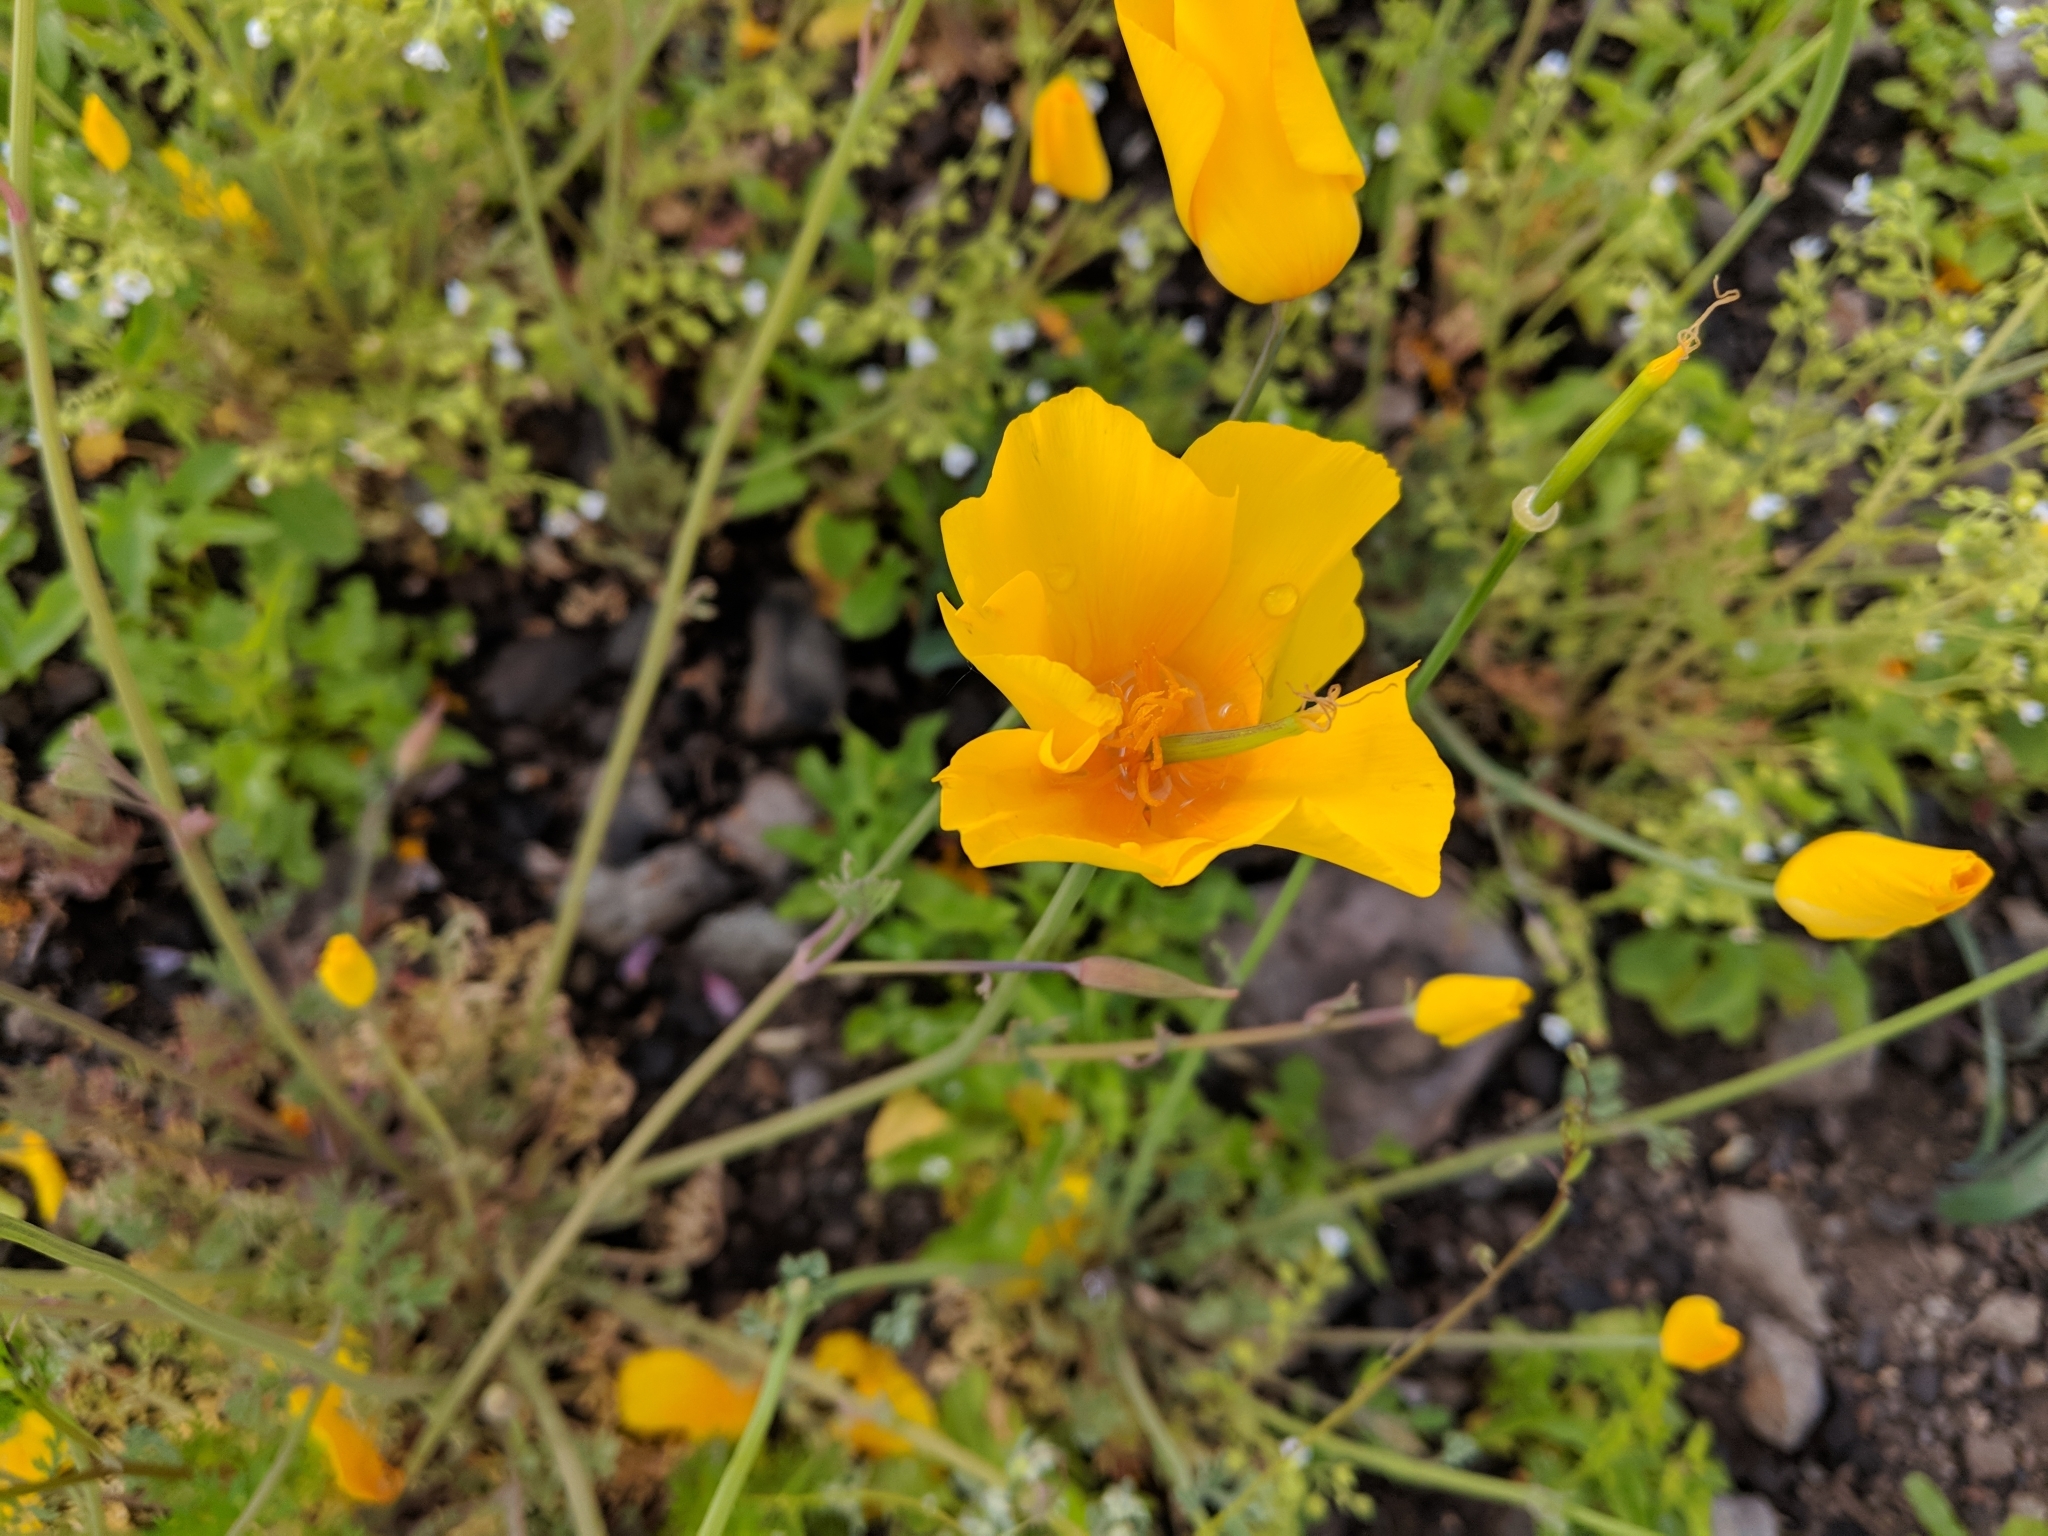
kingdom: Plantae
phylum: Tracheophyta
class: Magnoliopsida
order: Ranunculales
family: Papaveraceae
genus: Eschscholzia
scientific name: Eschscholzia caespitosa
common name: Tufted california-poppy
